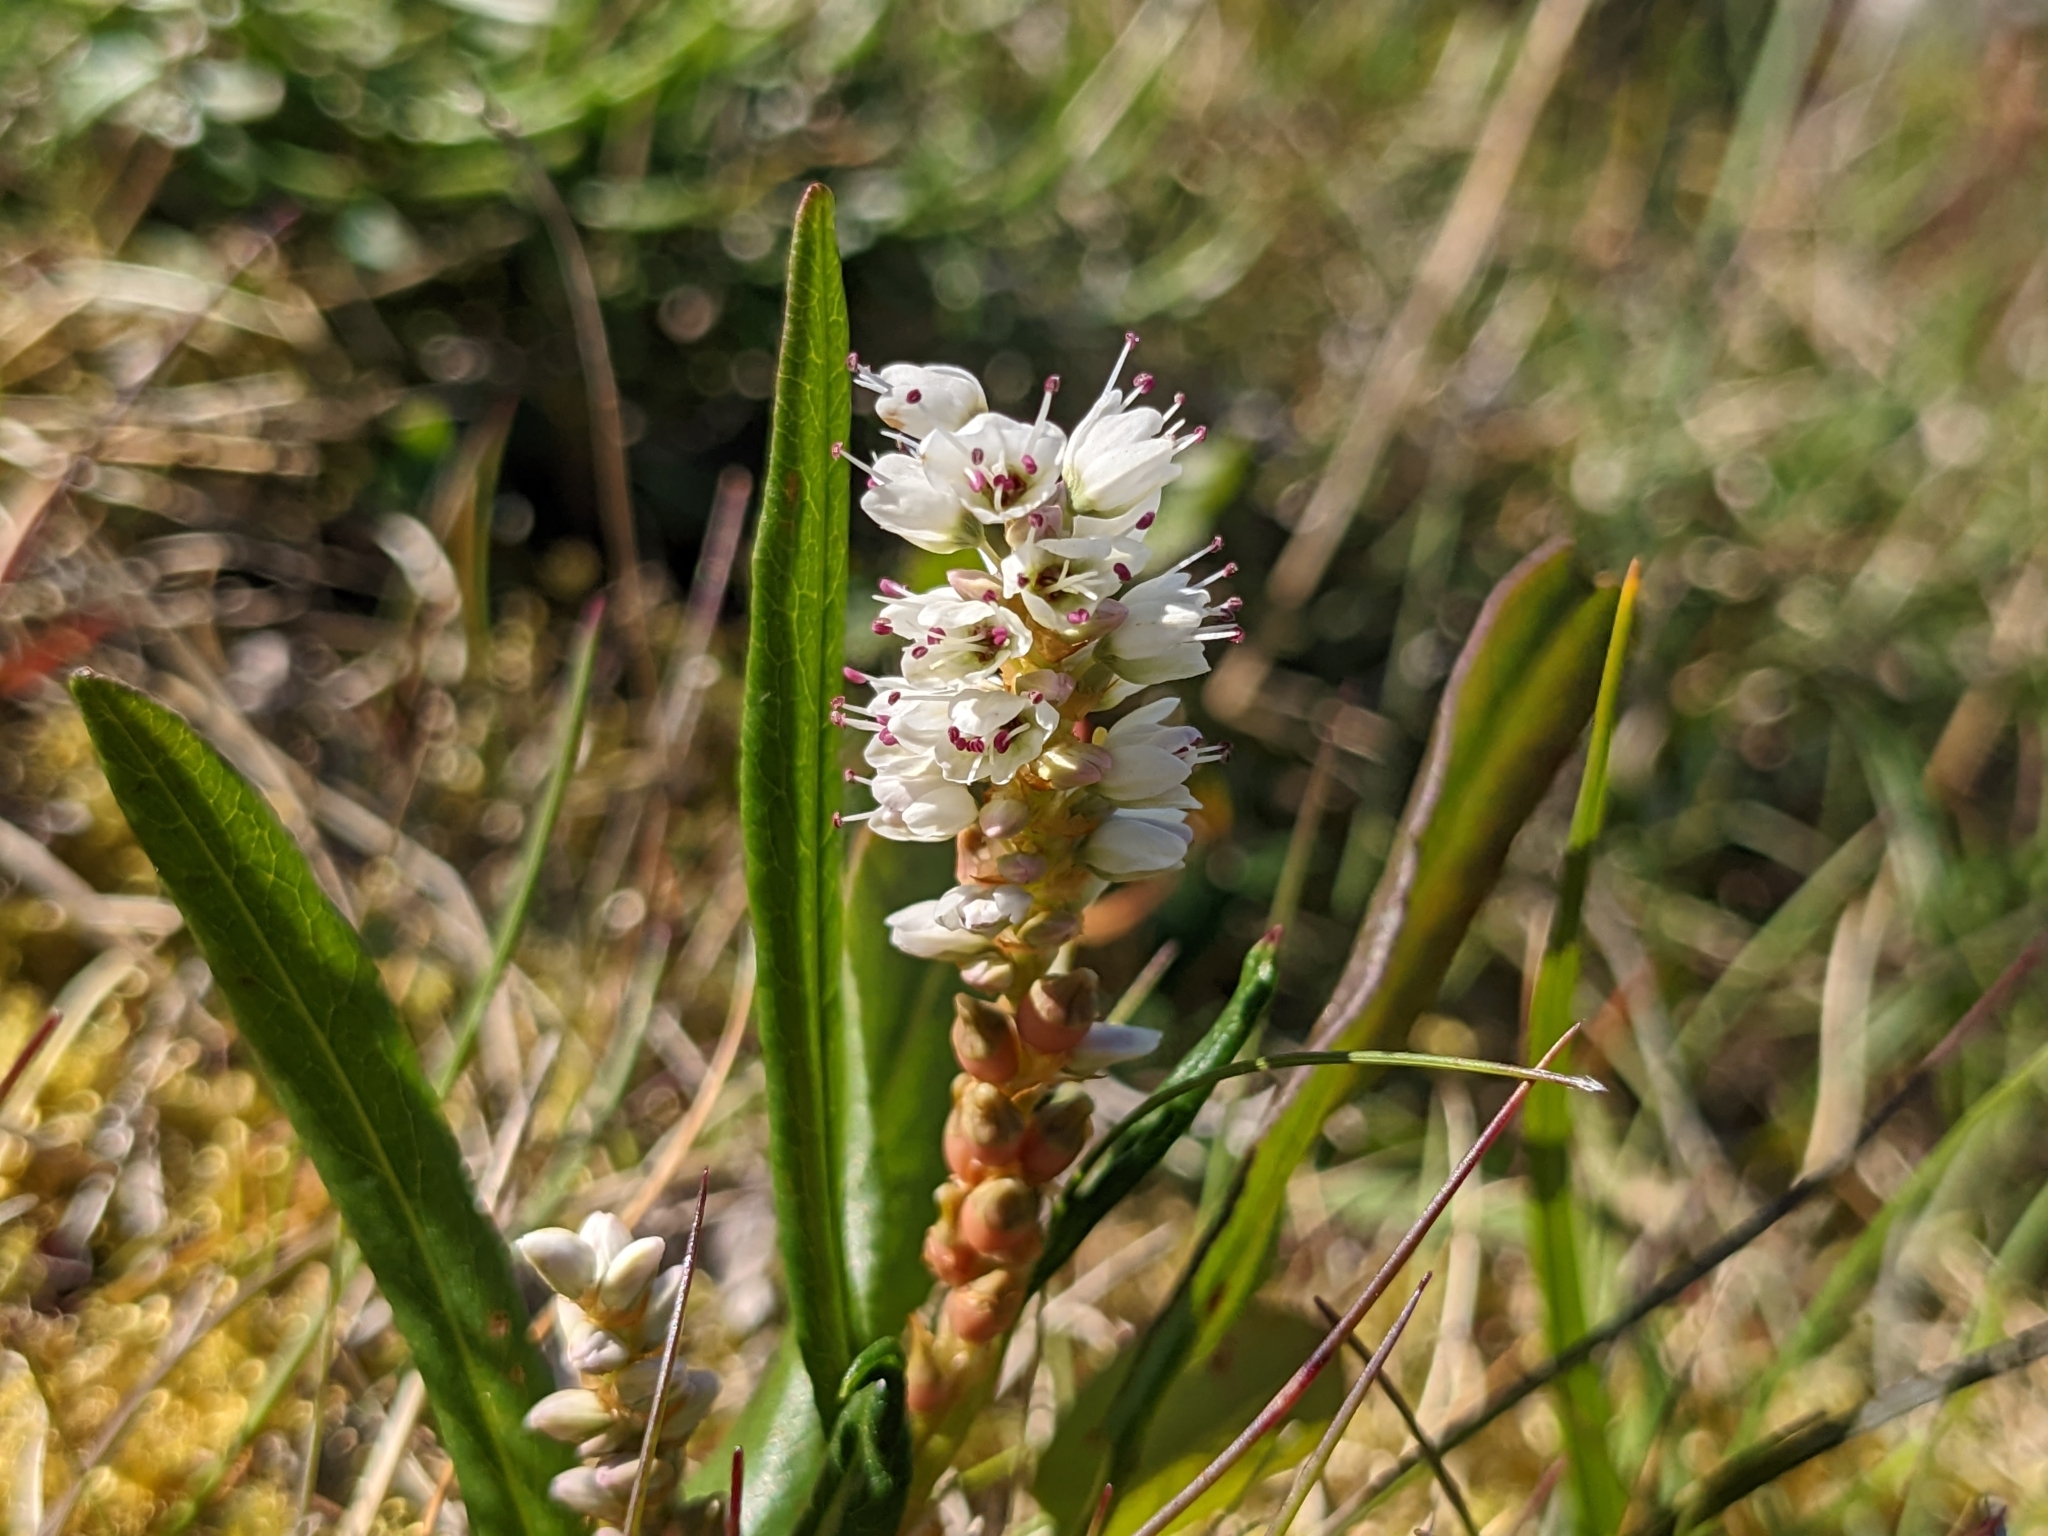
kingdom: Plantae
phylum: Tracheophyta
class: Magnoliopsida
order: Caryophyllales
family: Polygonaceae
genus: Bistorta
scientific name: Bistorta vivipara
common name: Alpine bistort
